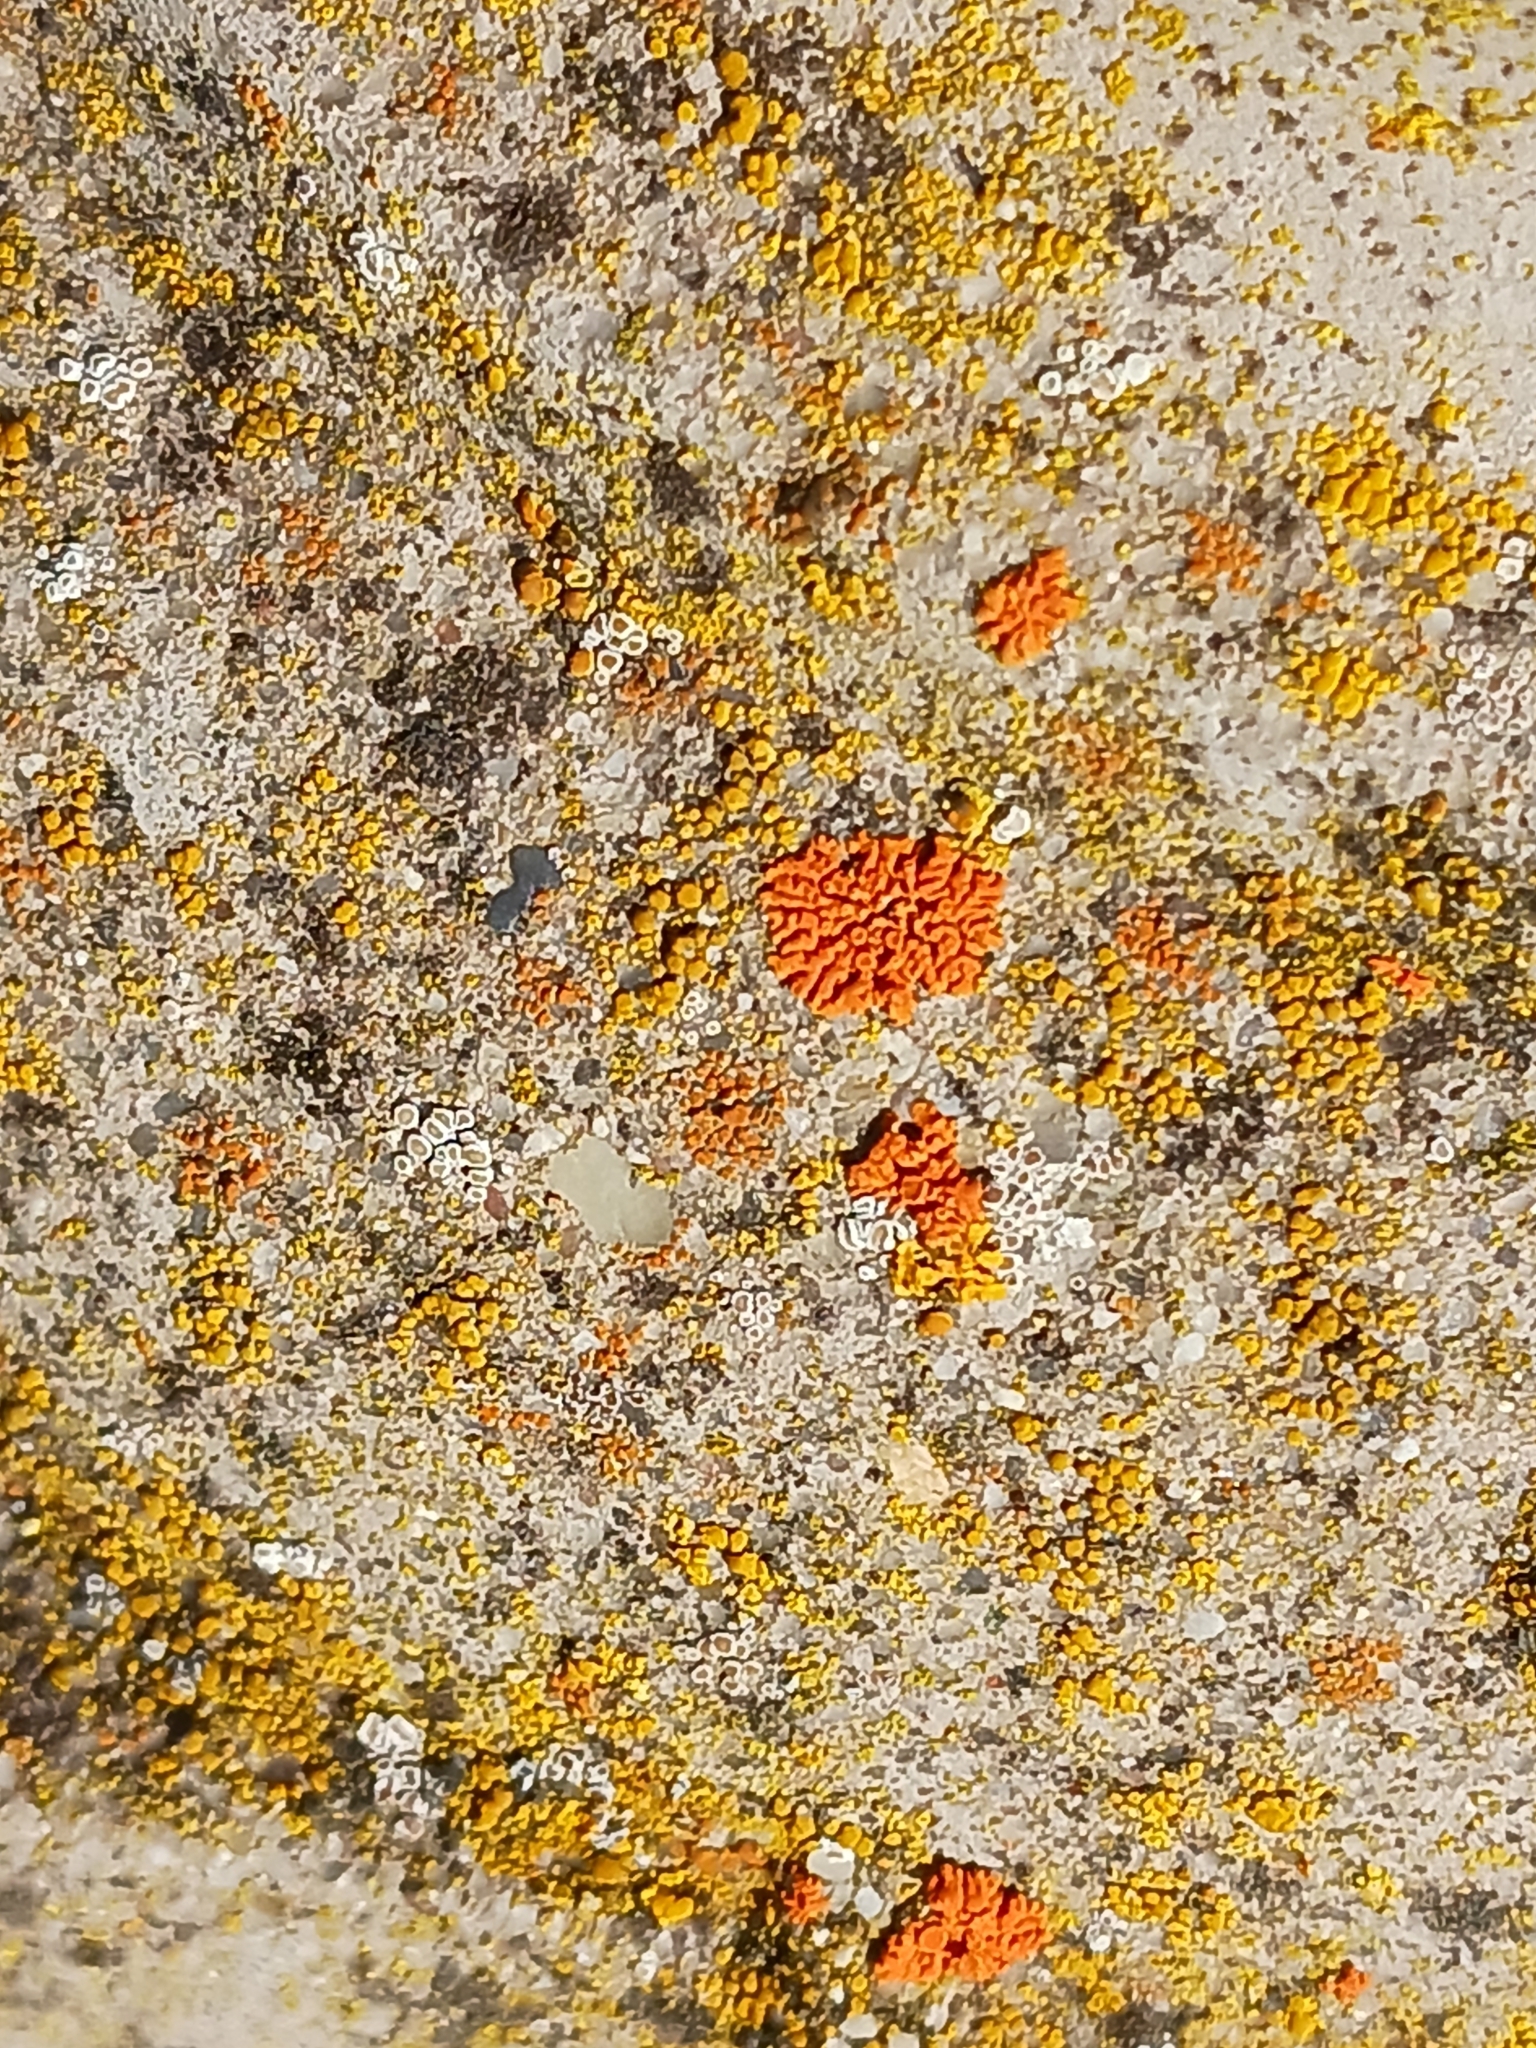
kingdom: Fungi
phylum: Ascomycota
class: Lecanoromycetes
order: Teloschistales
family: Teloschistaceae
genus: Xanthoria
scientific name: Xanthoria elegans
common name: Elegant sunburst lichen
